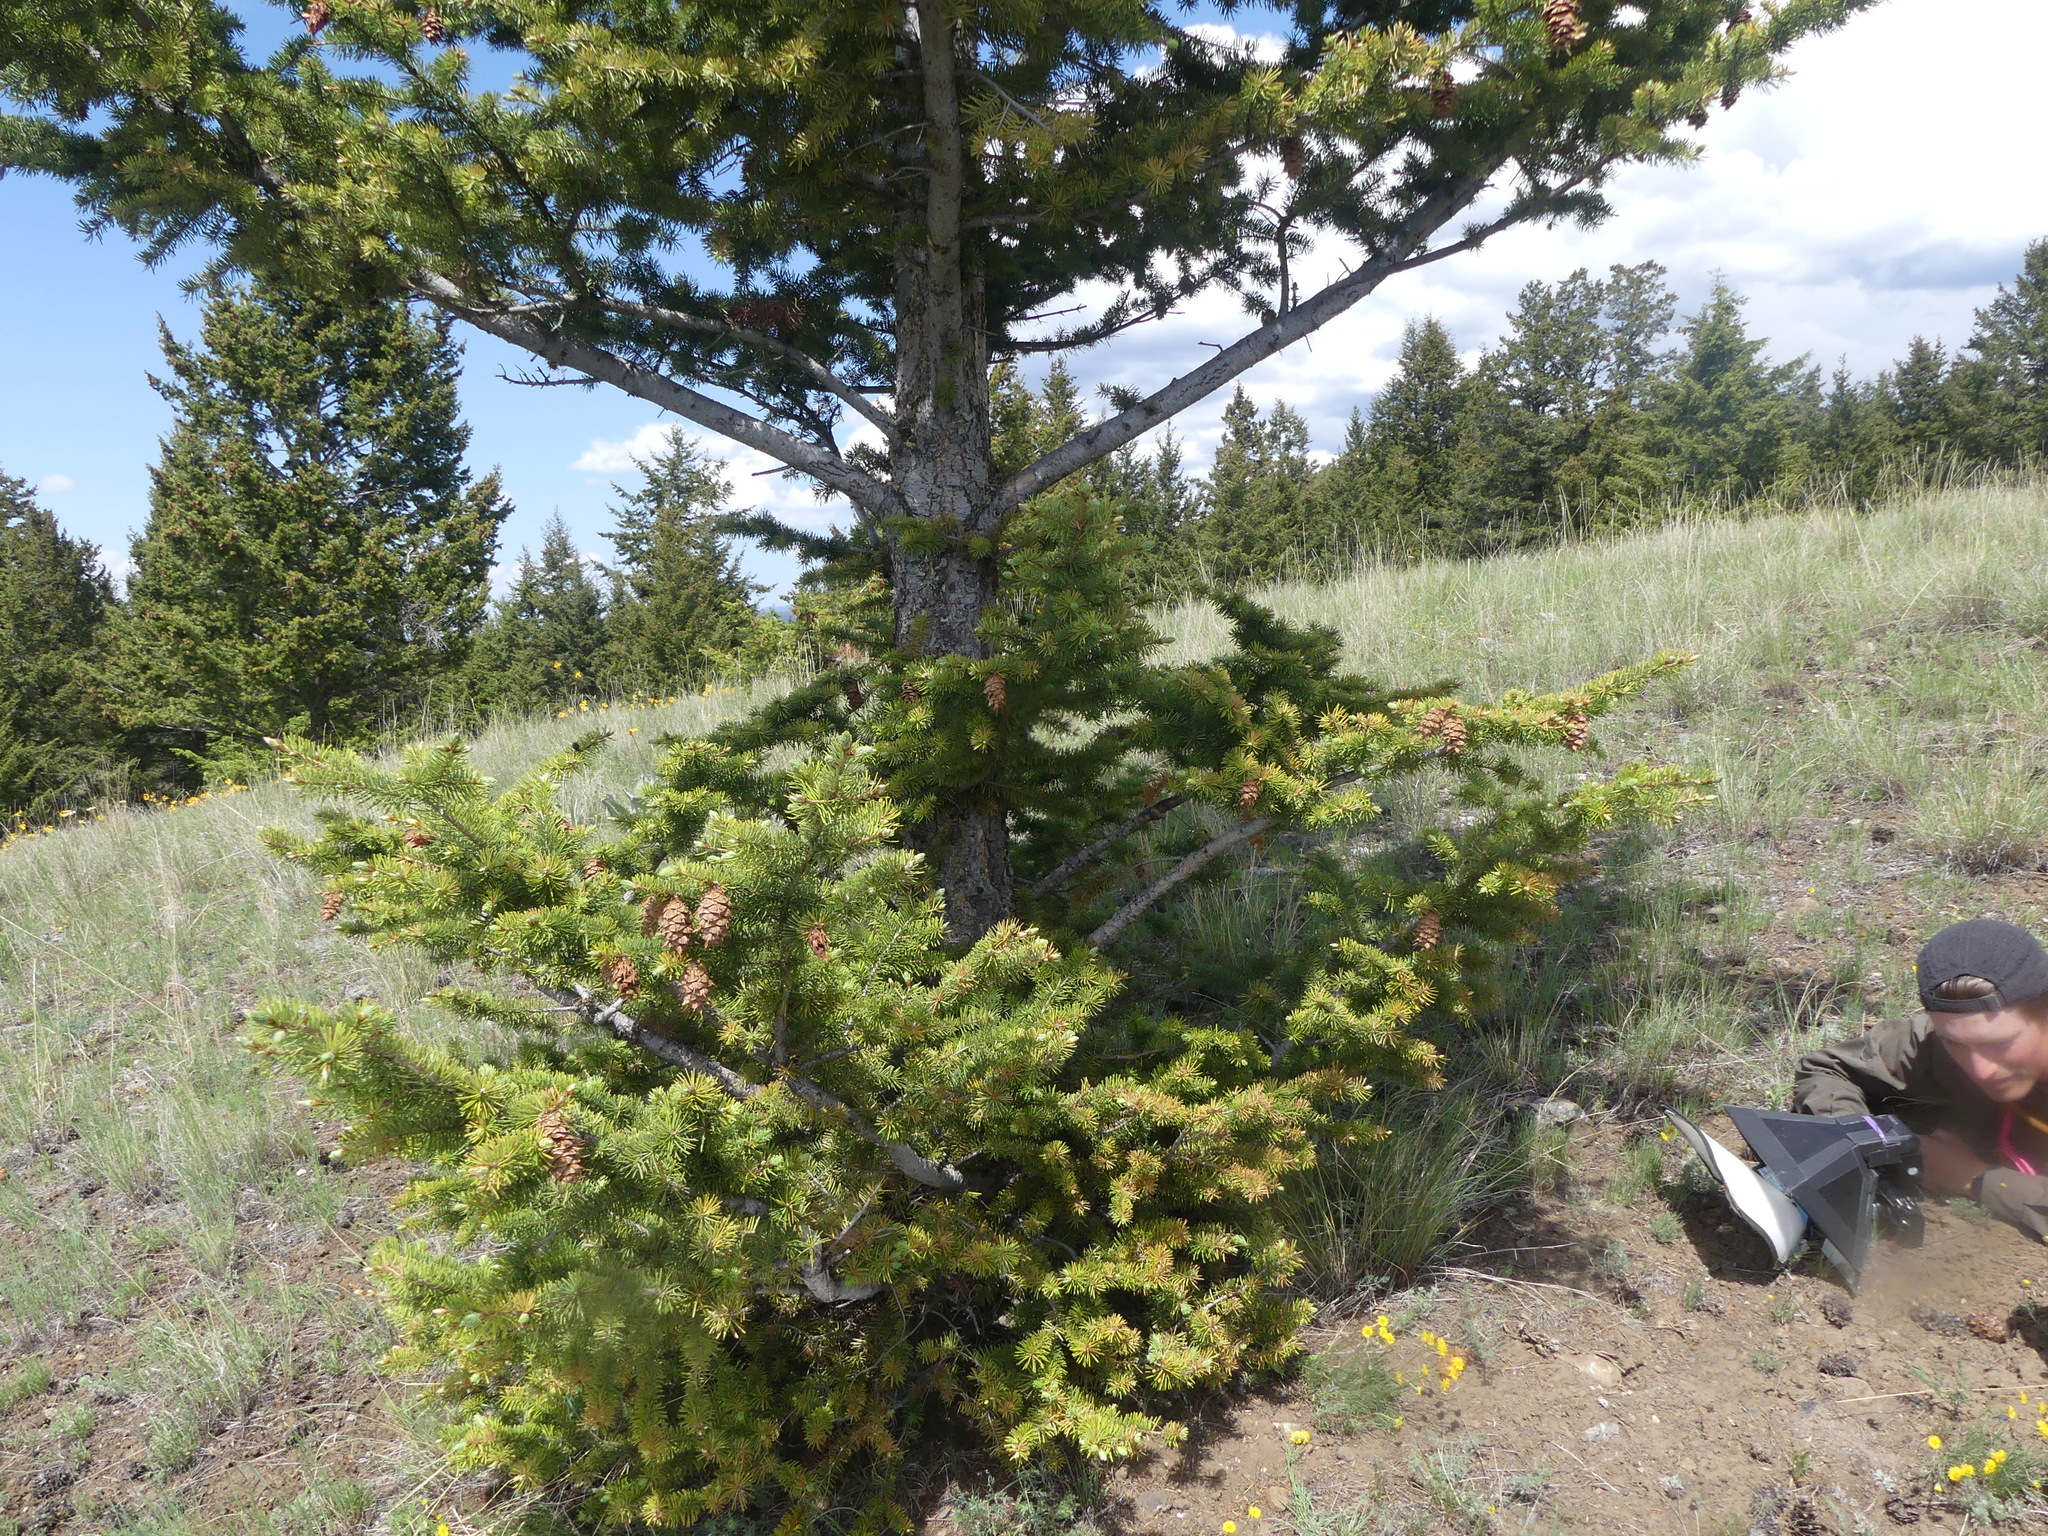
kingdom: Plantae
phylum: Tracheophyta
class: Pinopsida
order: Pinales
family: Pinaceae
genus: Pseudotsuga
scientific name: Pseudotsuga menziesii
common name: Douglas fir
